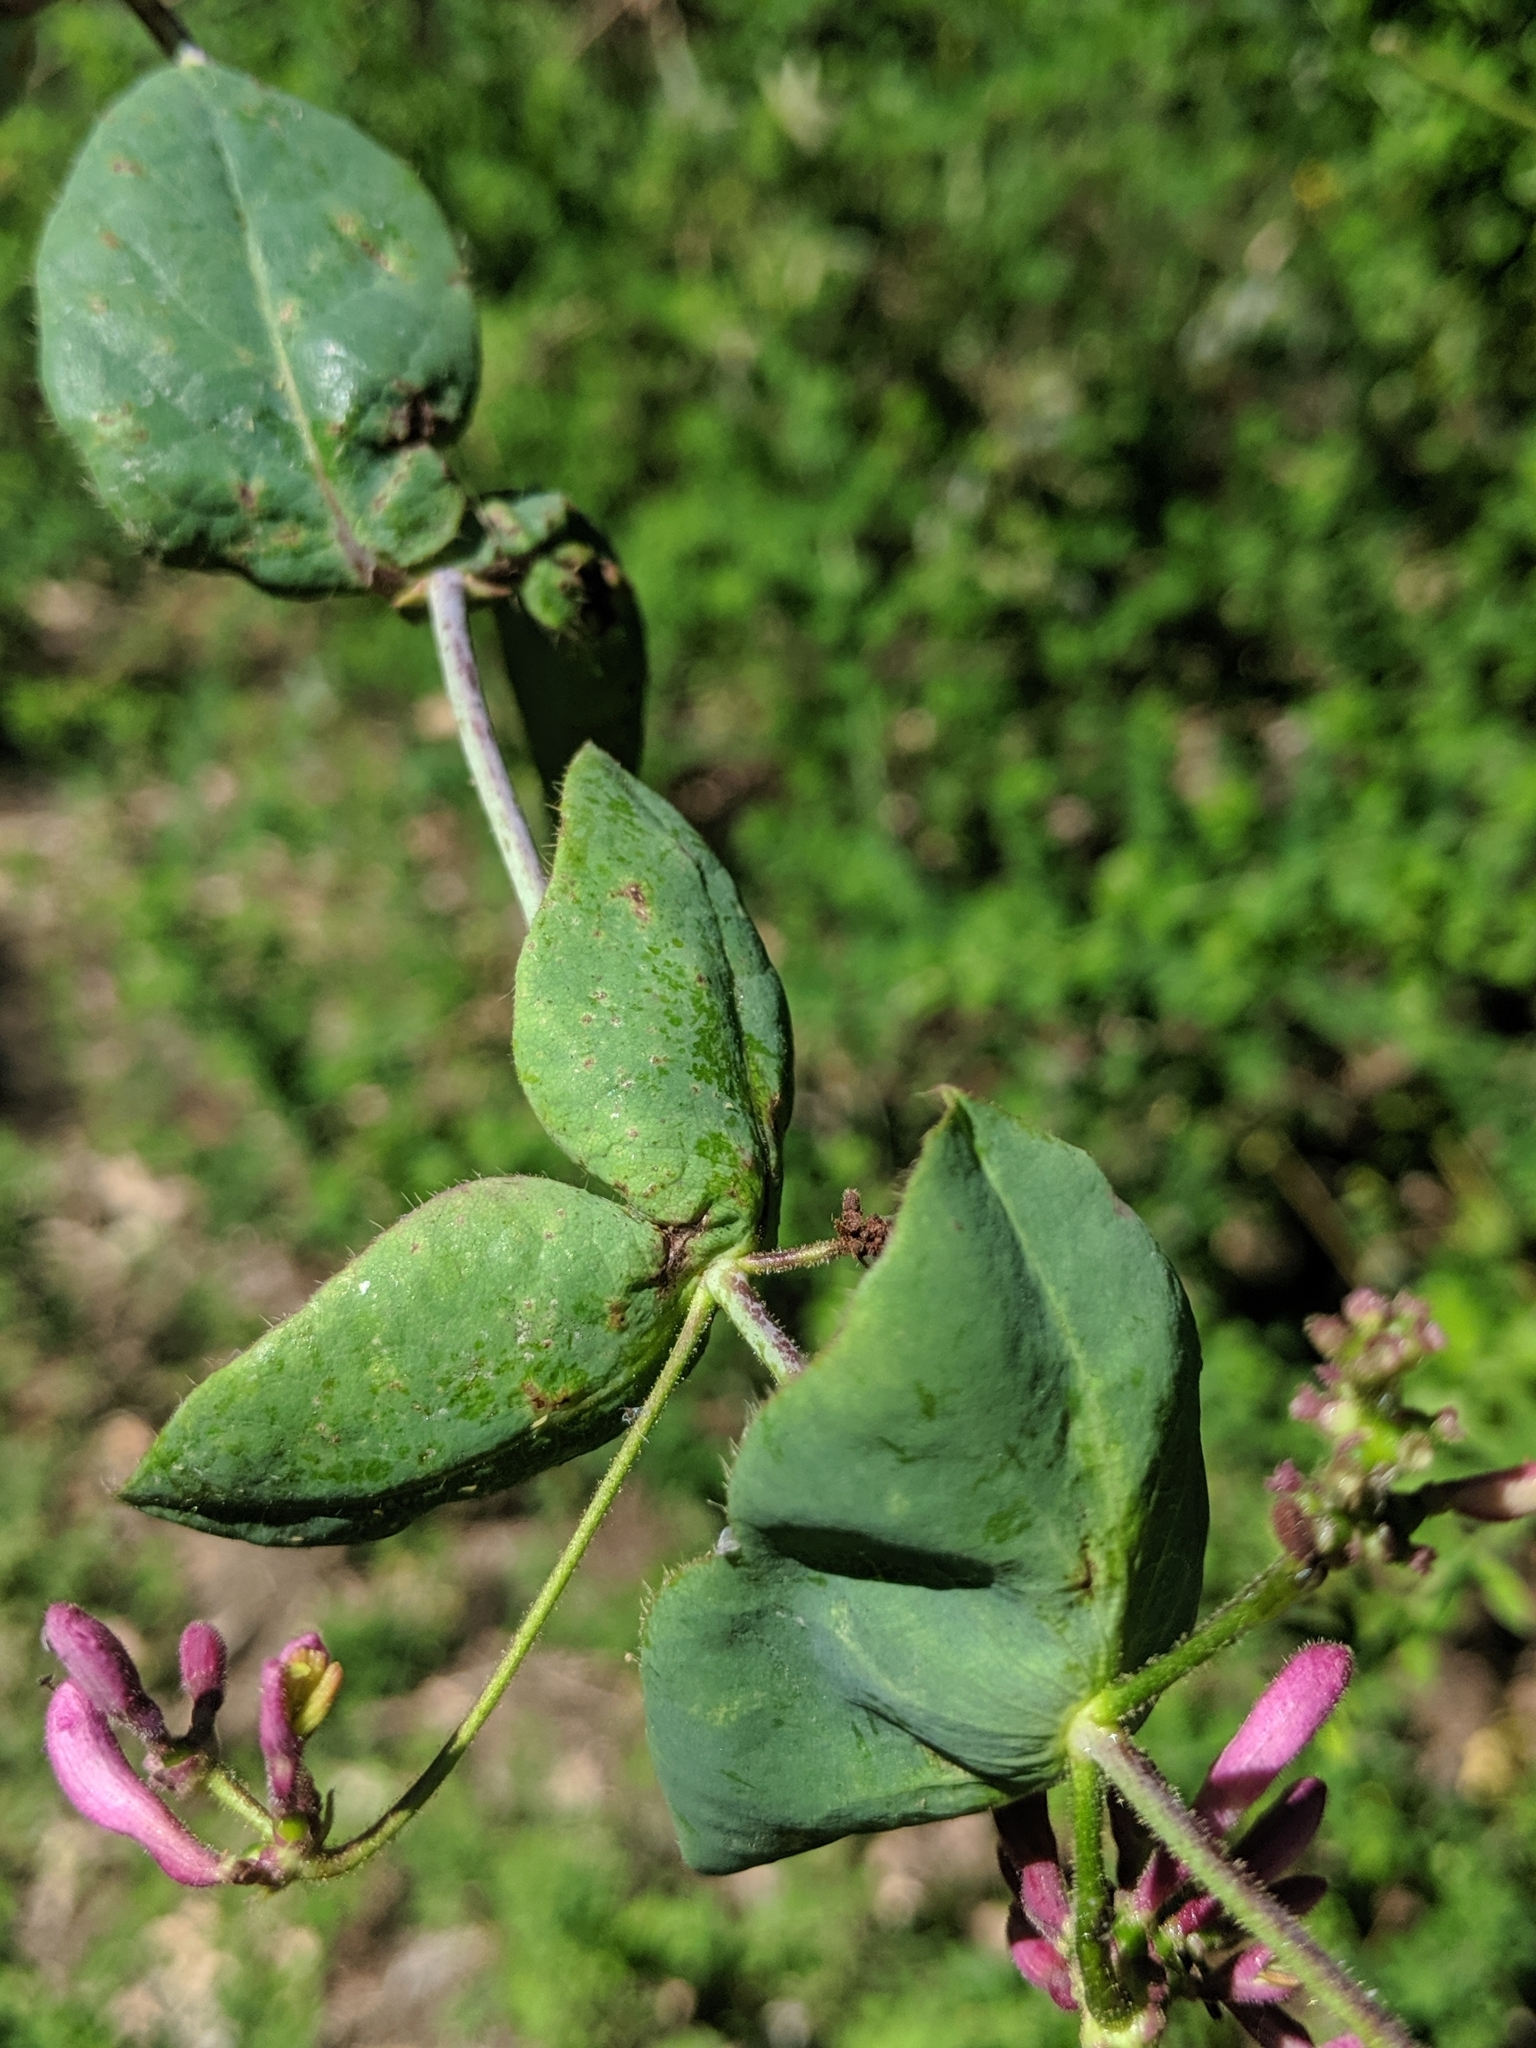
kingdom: Plantae
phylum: Tracheophyta
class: Magnoliopsida
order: Dipsacales
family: Caprifoliaceae
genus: Lonicera
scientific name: Lonicera hispidula
